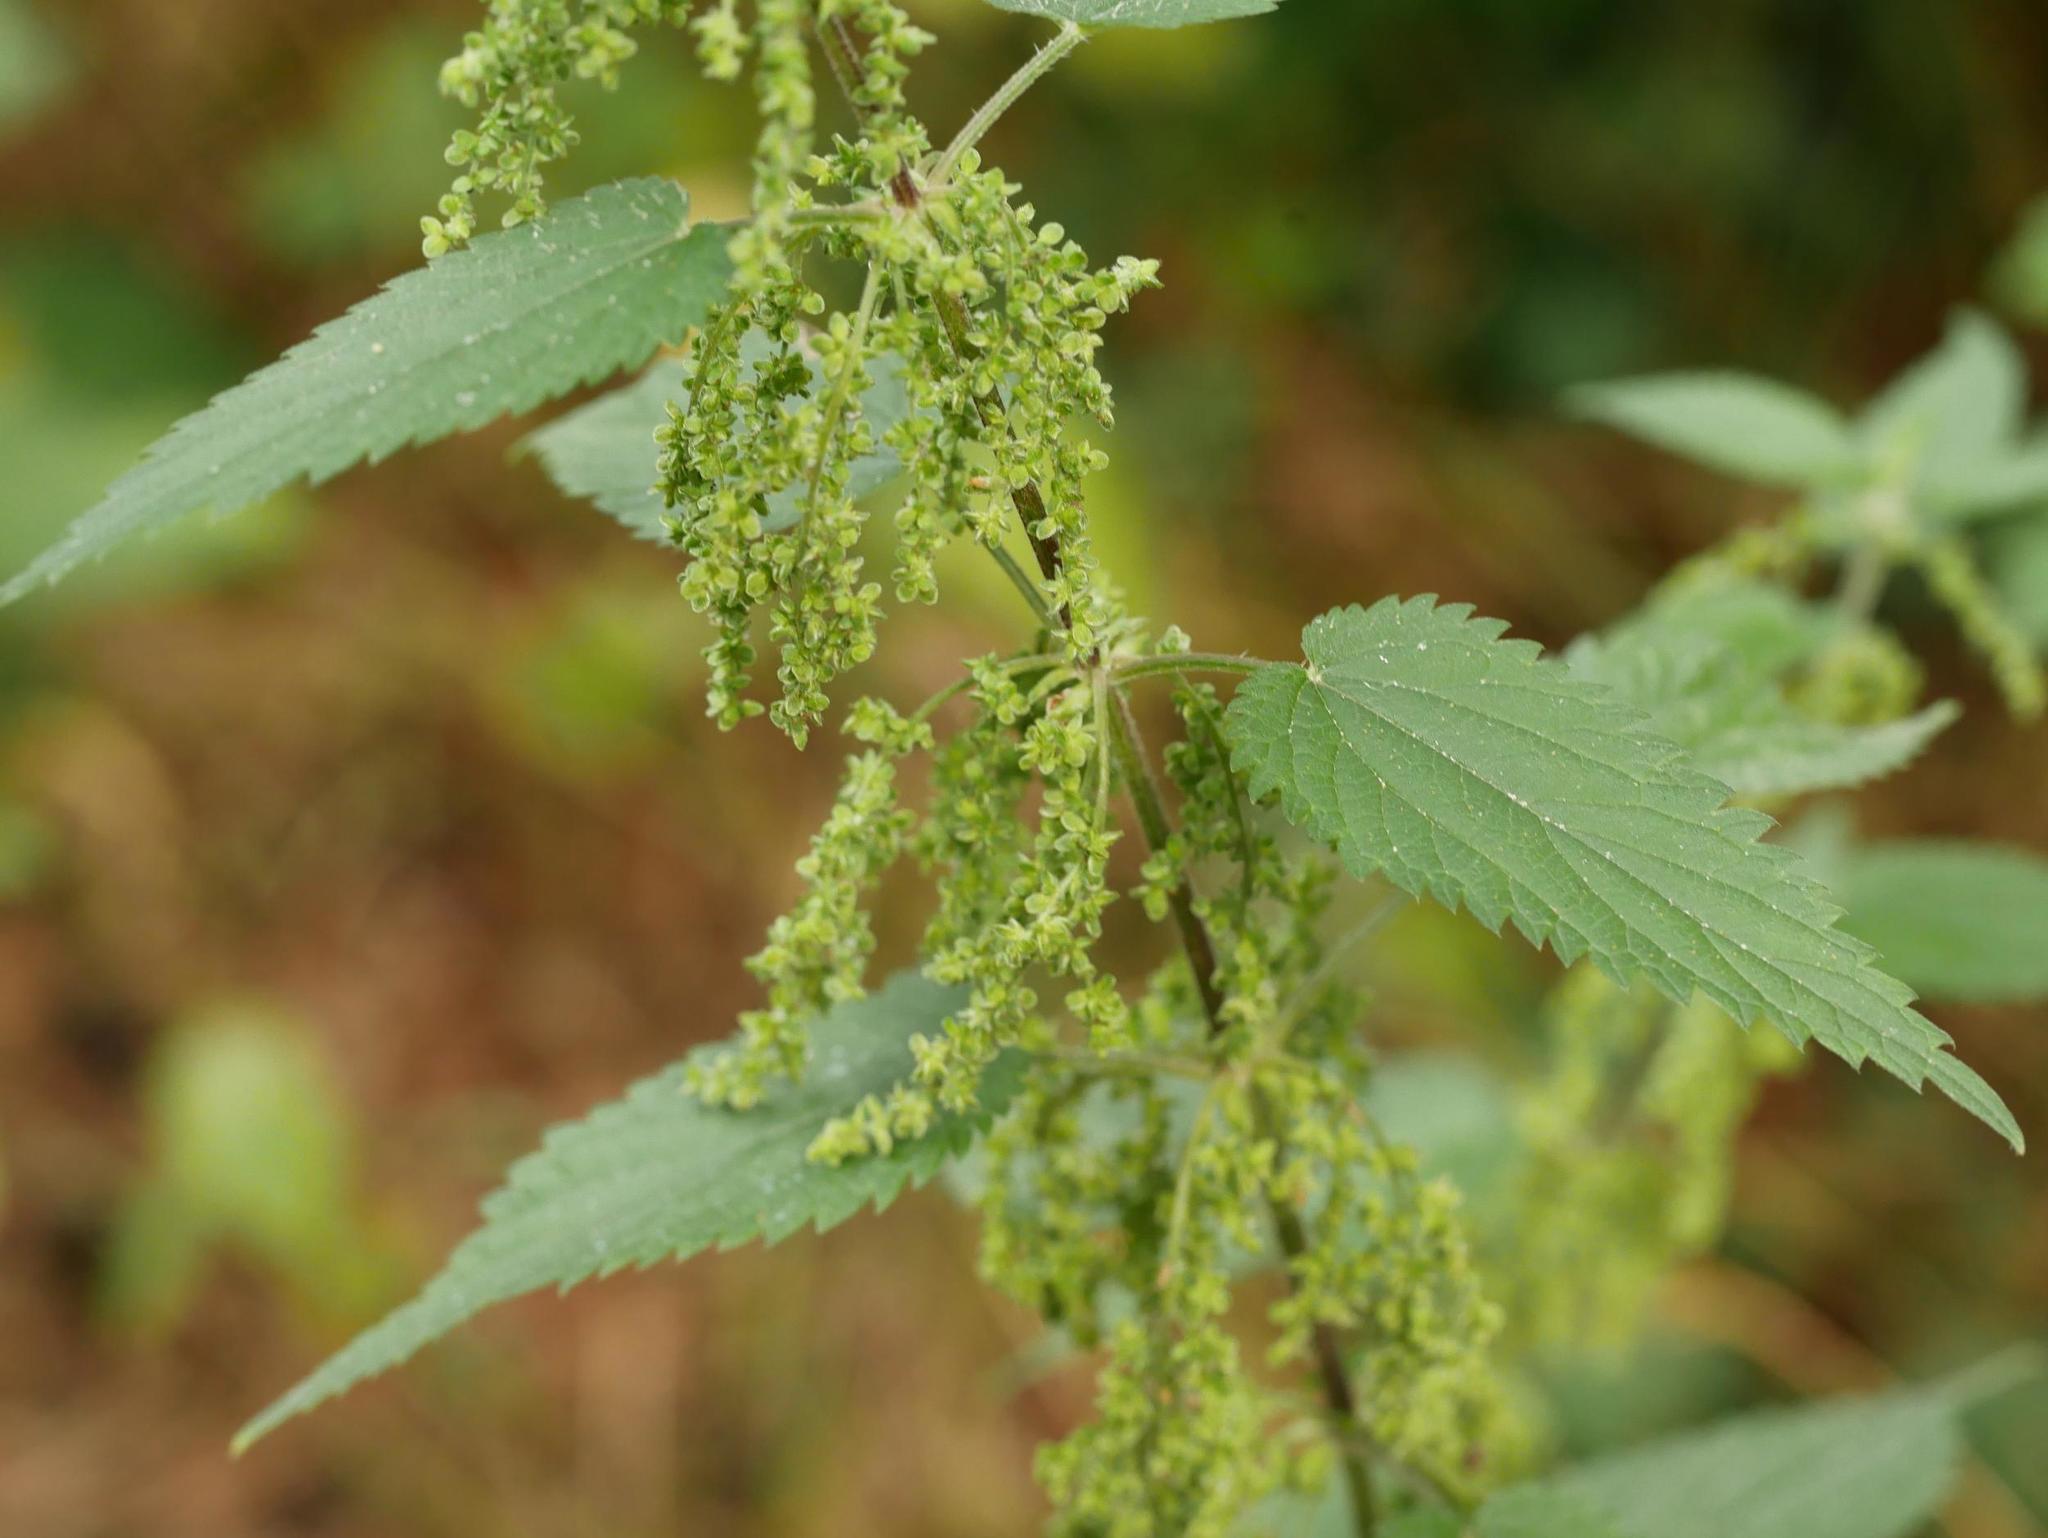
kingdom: Plantae
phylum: Tracheophyta
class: Magnoliopsida
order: Rosales
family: Urticaceae
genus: Urtica
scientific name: Urtica dioica
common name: Common nettle
